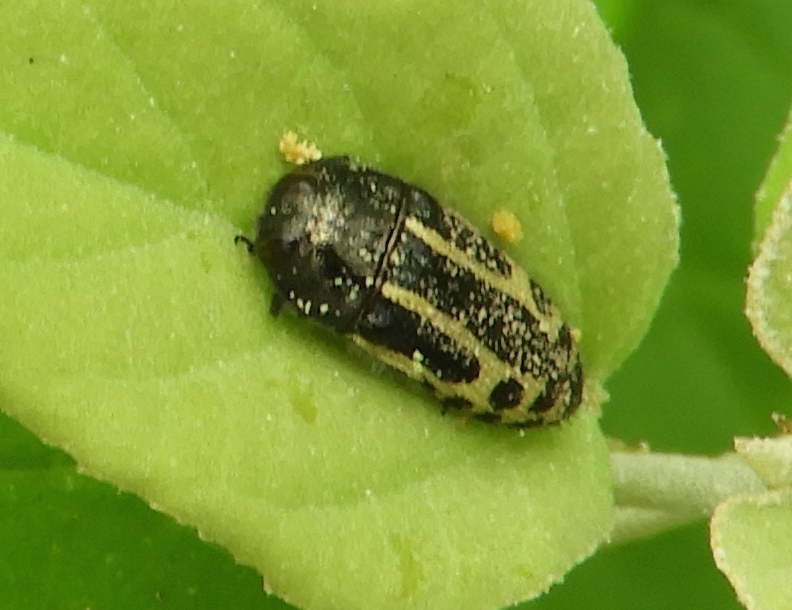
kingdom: Animalia
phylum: Arthropoda
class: Insecta
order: Coleoptera
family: Buprestidae
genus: Acmaeodera
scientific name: Acmaeodera scalaris
